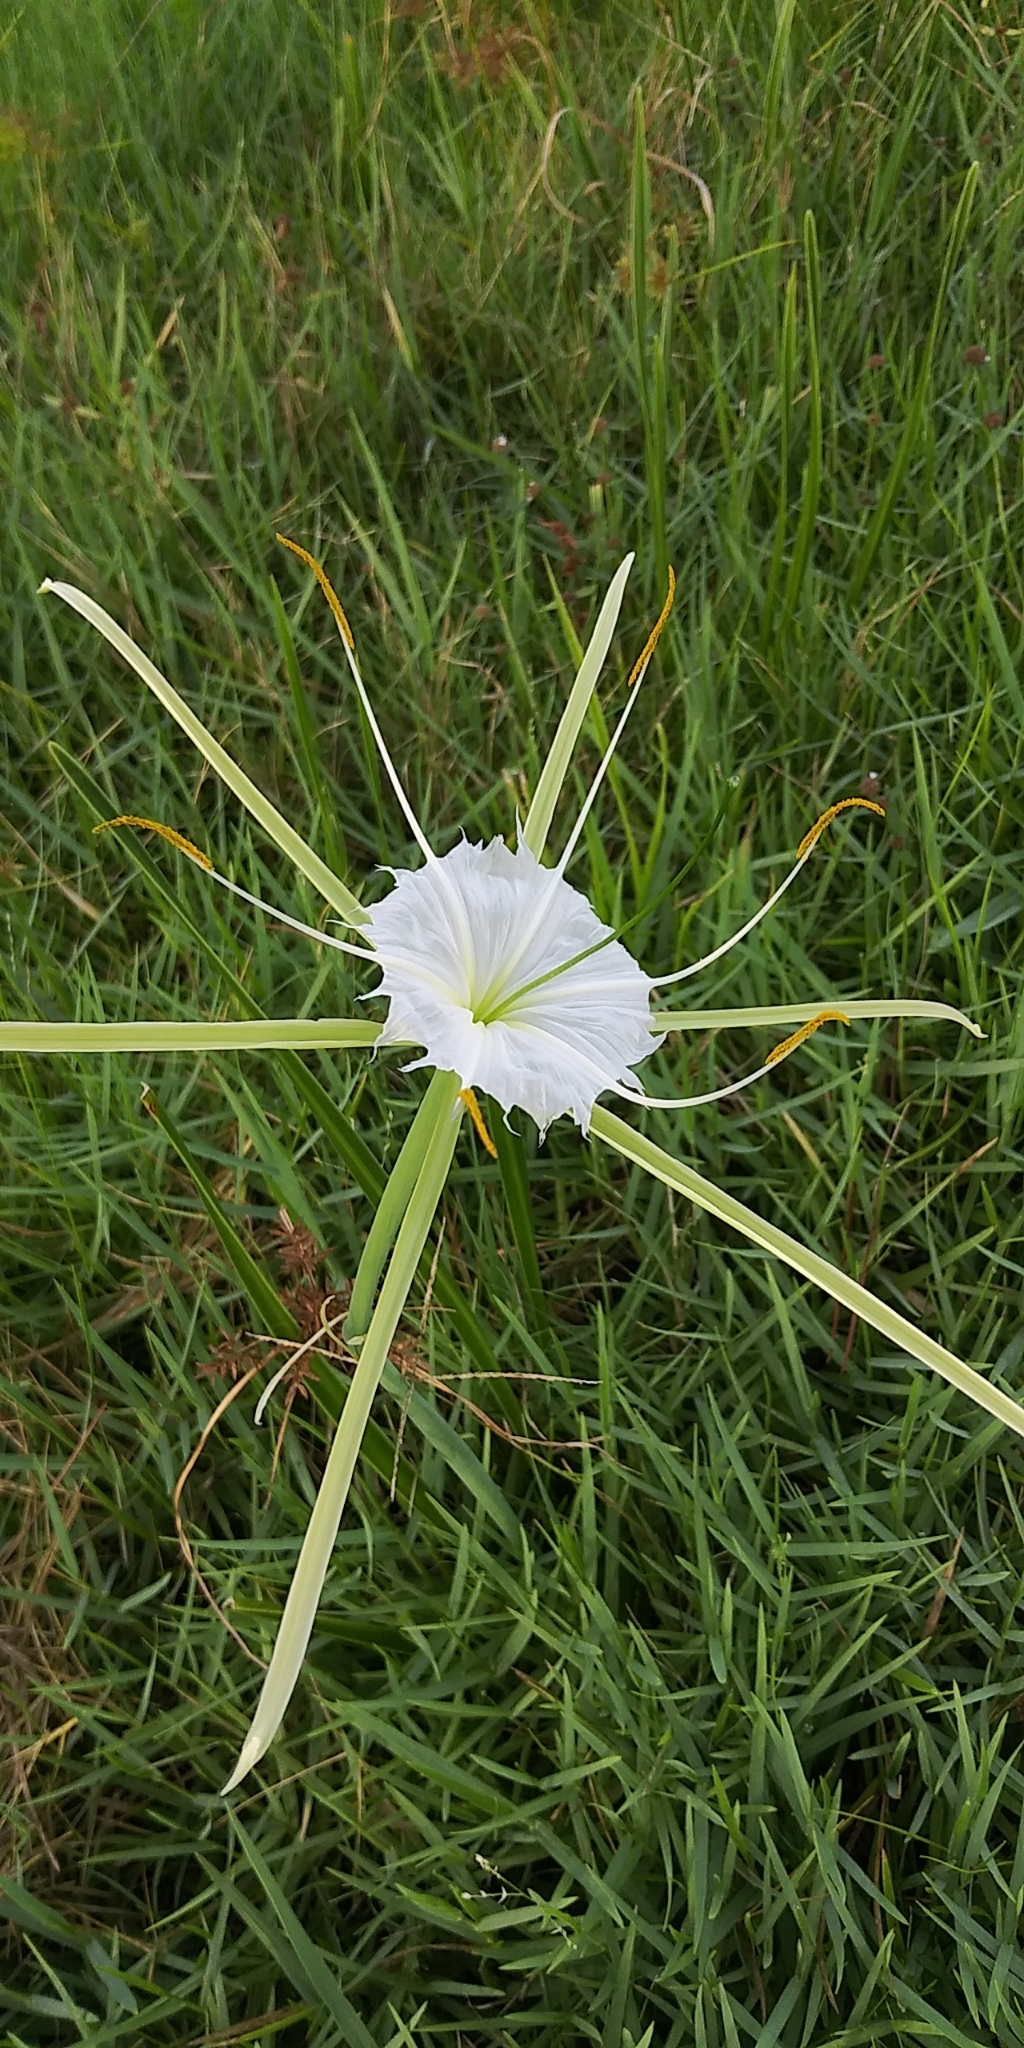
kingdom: Plantae
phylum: Tracheophyta
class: Liliopsida
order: Asparagales
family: Amaryllidaceae
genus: Hymenocallis
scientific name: Hymenocallis palmeri
